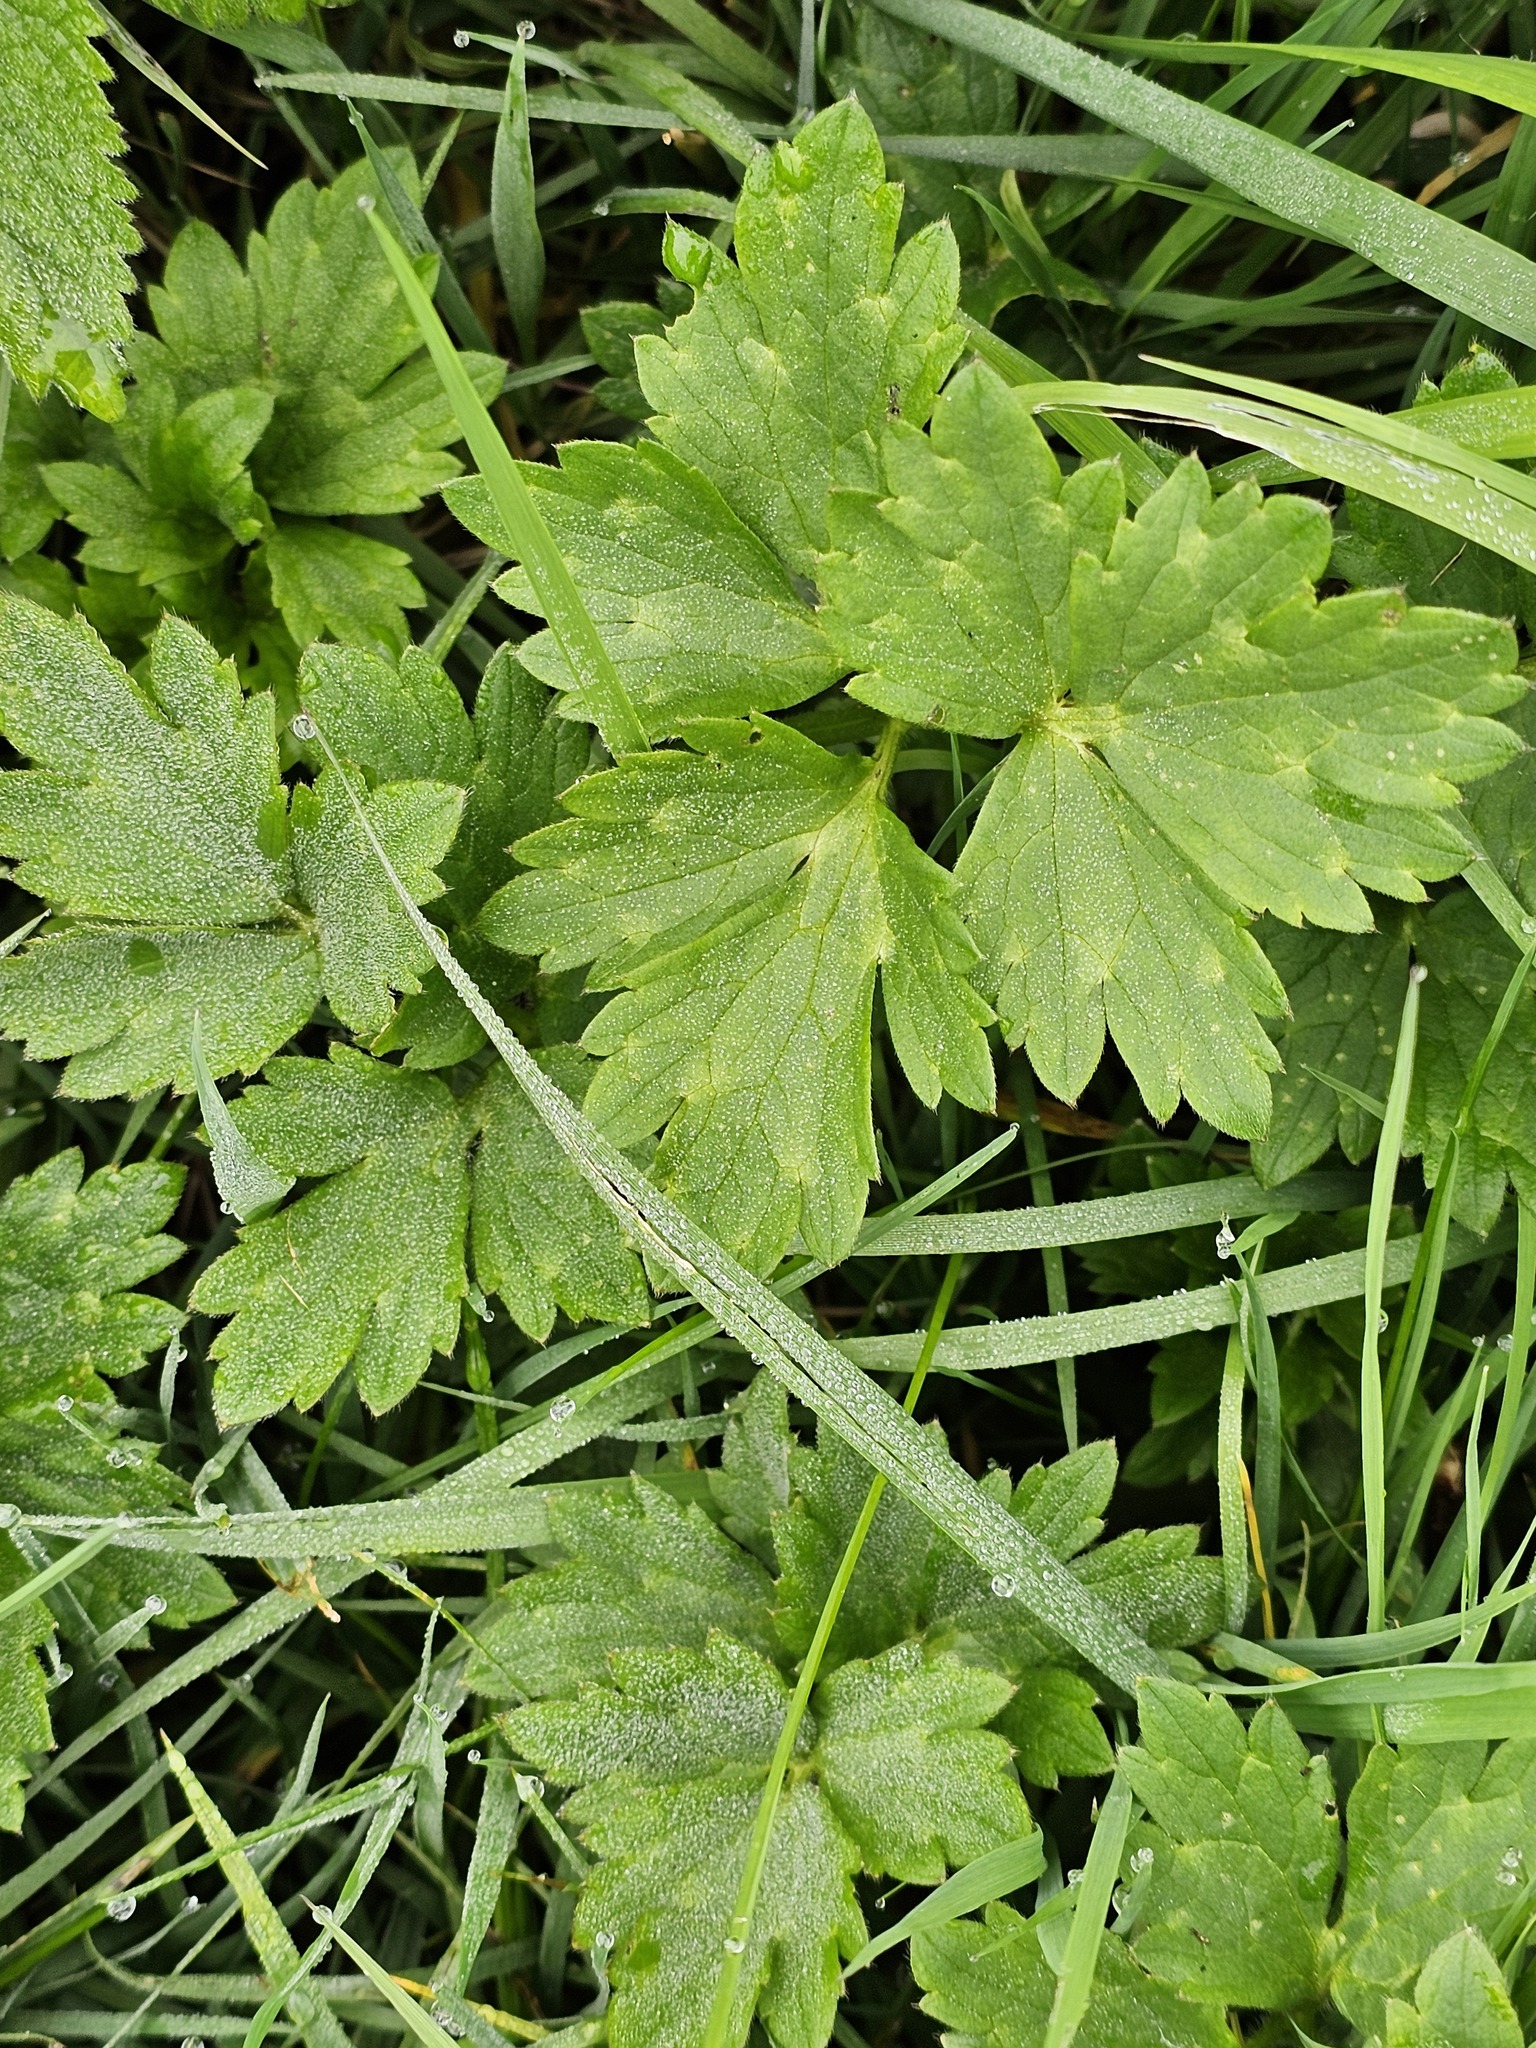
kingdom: Plantae
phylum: Tracheophyta
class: Magnoliopsida
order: Ranunculales
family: Ranunculaceae
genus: Ranunculus
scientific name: Ranunculus repens
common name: Creeping buttercup
